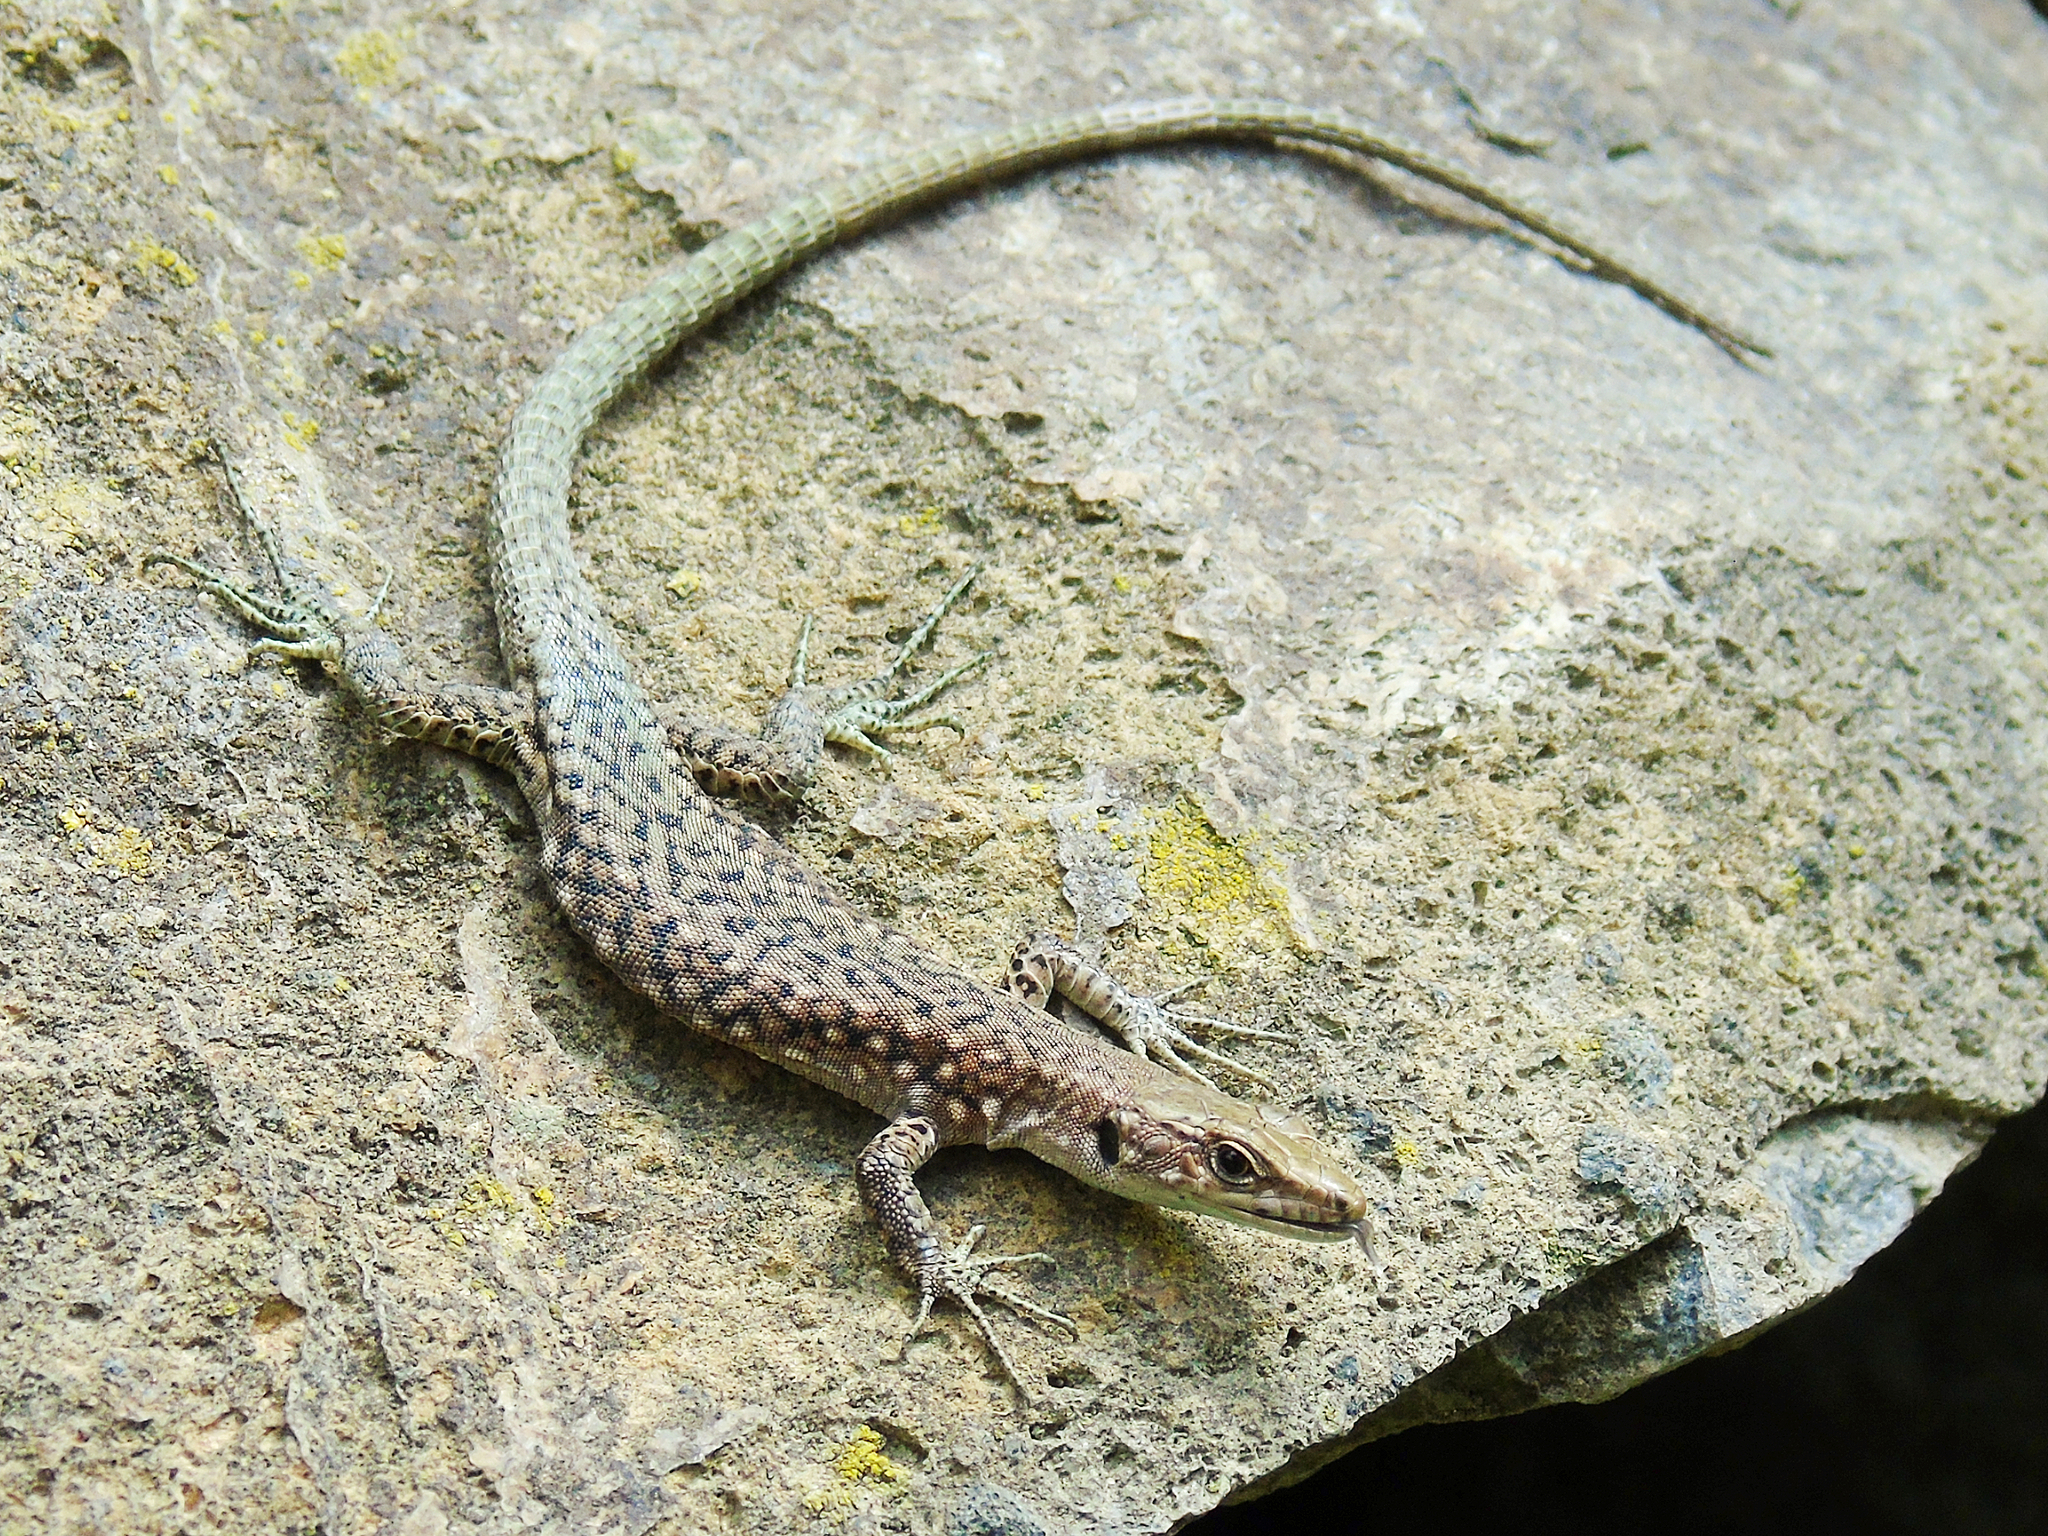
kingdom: Animalia
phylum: Chordata
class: Squamata
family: Lacertidae
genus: Darevskia
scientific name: Darevskia
